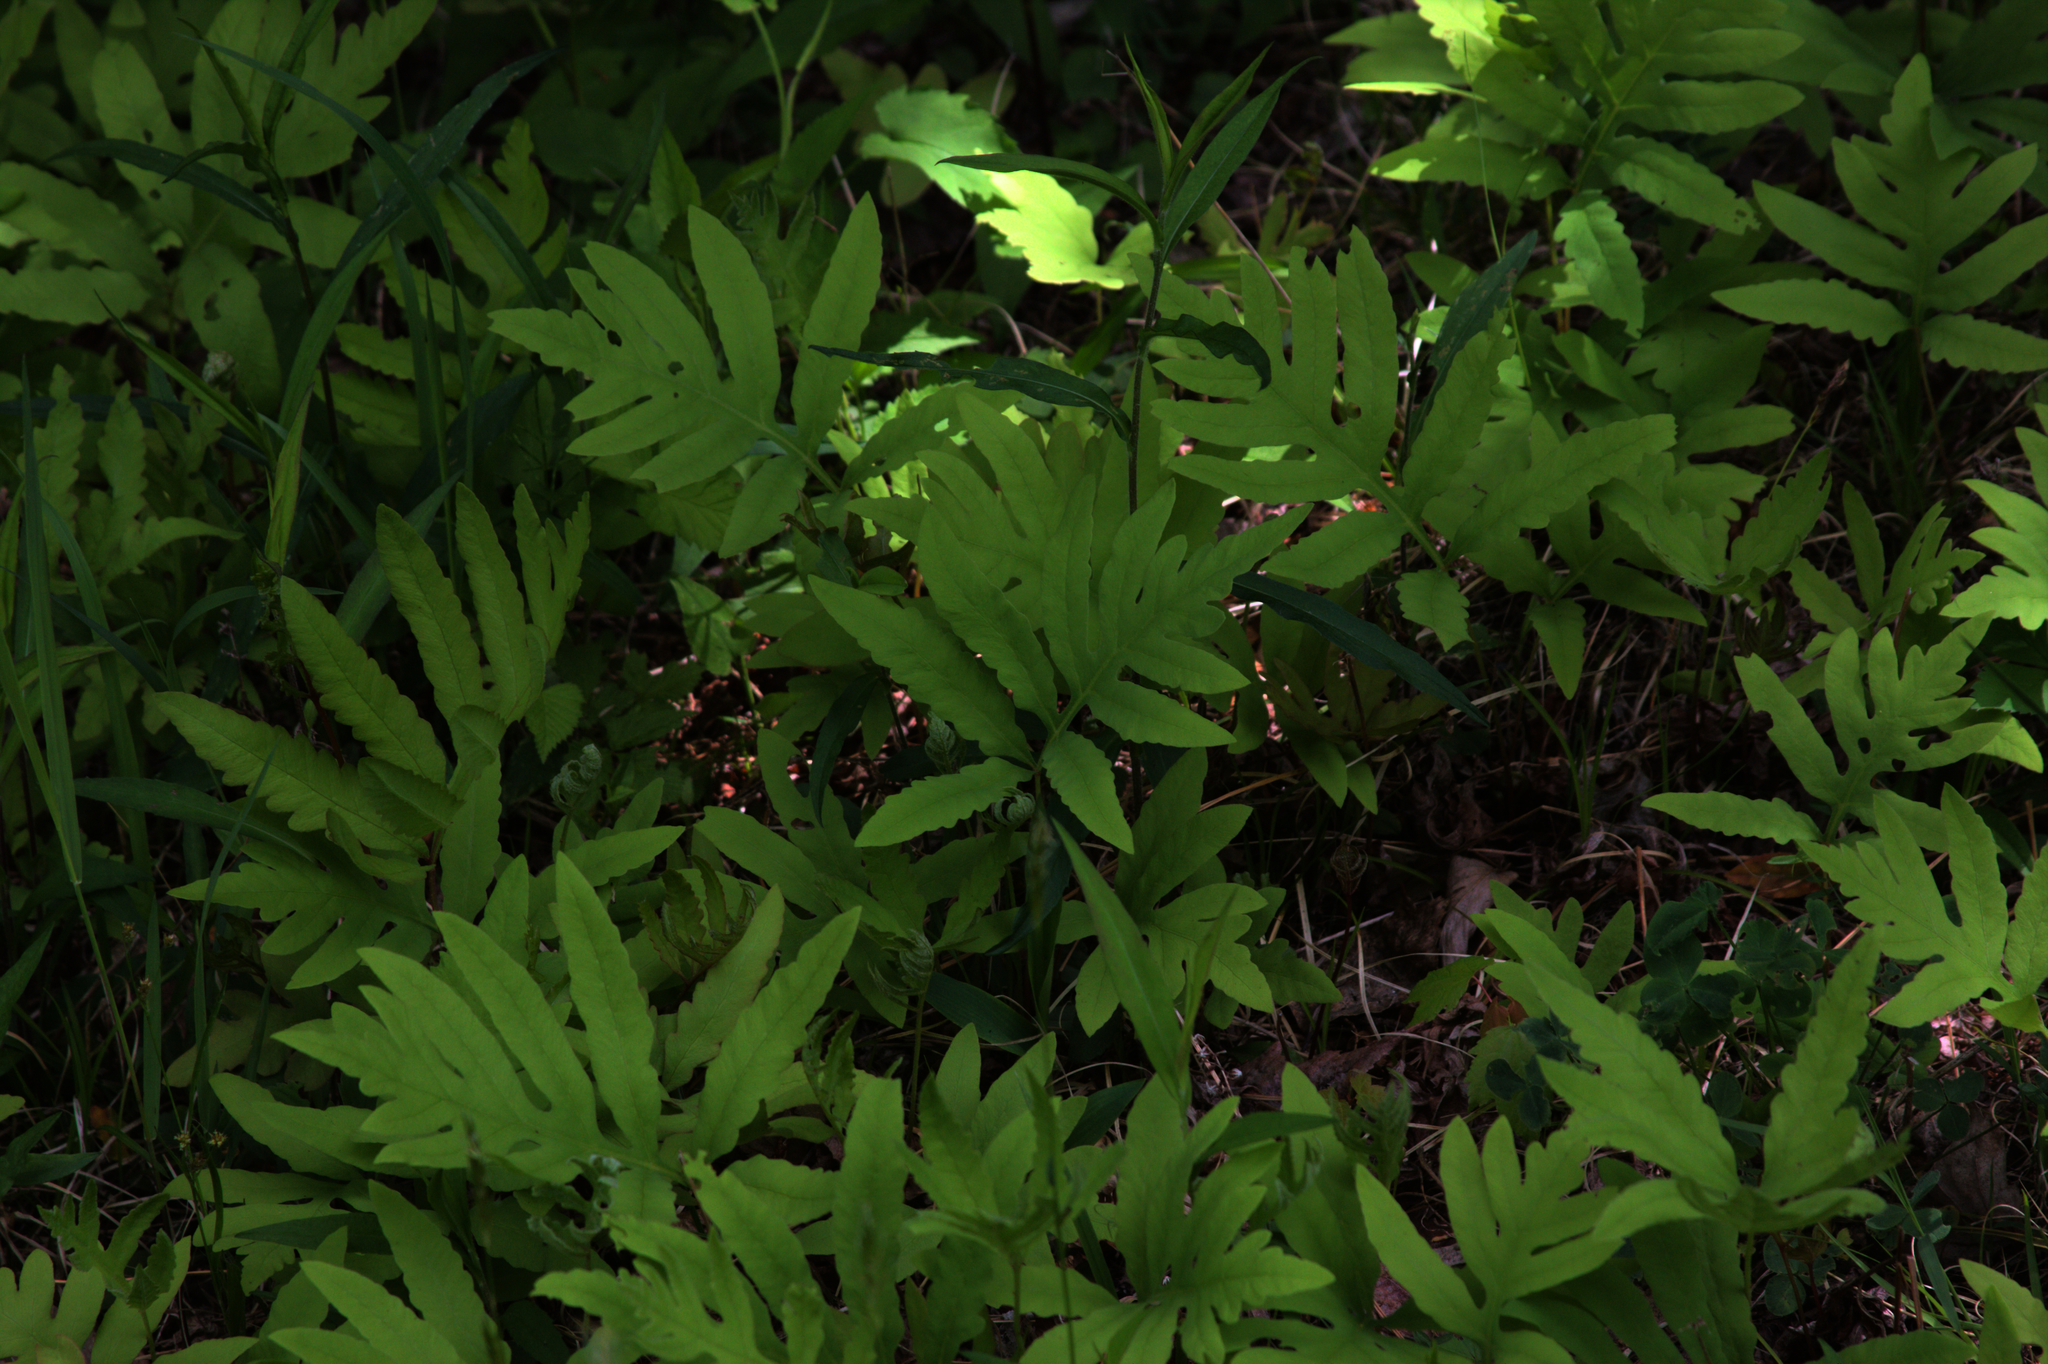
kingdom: Plantae
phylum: Tracheophyta
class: Polypodiopsida
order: Polypodiales
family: Onocleaceae
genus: Onoclea
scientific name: Onoclea sensibilis
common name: Sensitive fern
